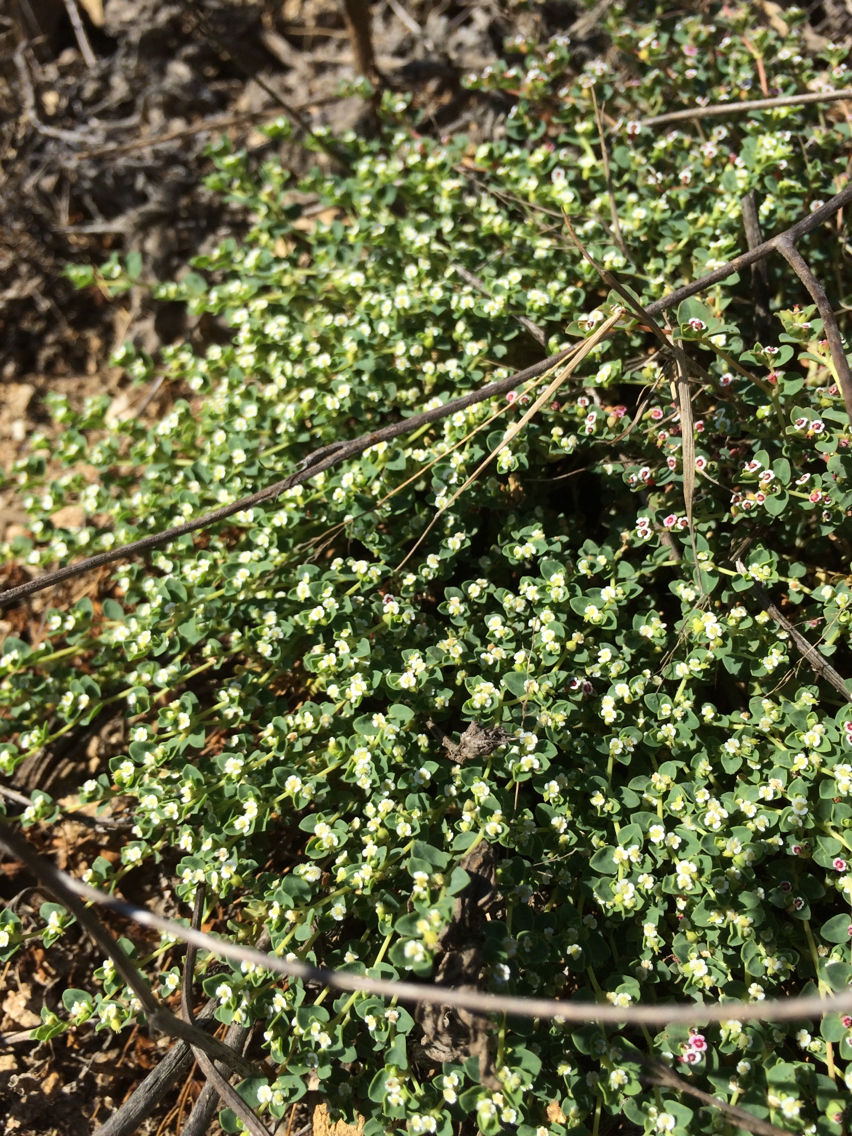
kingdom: Plantae
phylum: Tracheophyta
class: Magnoliopsida
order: Malpighiales
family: Euphorbiaceae
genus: Euphorbia
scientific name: Euphorbia polycarpa
